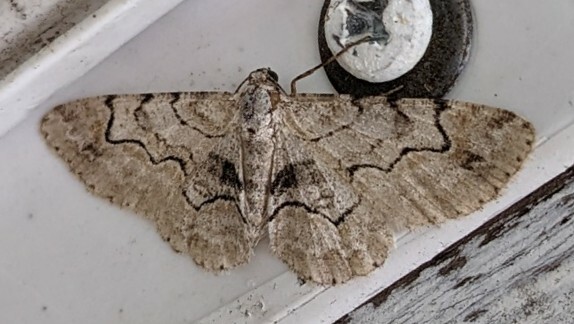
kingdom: Animalia
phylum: Arthropoda
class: Insecta
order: Lepidoptera
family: Geometridae
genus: Iridopsis
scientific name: Iridopsis larvaria
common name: Bent-line gray
